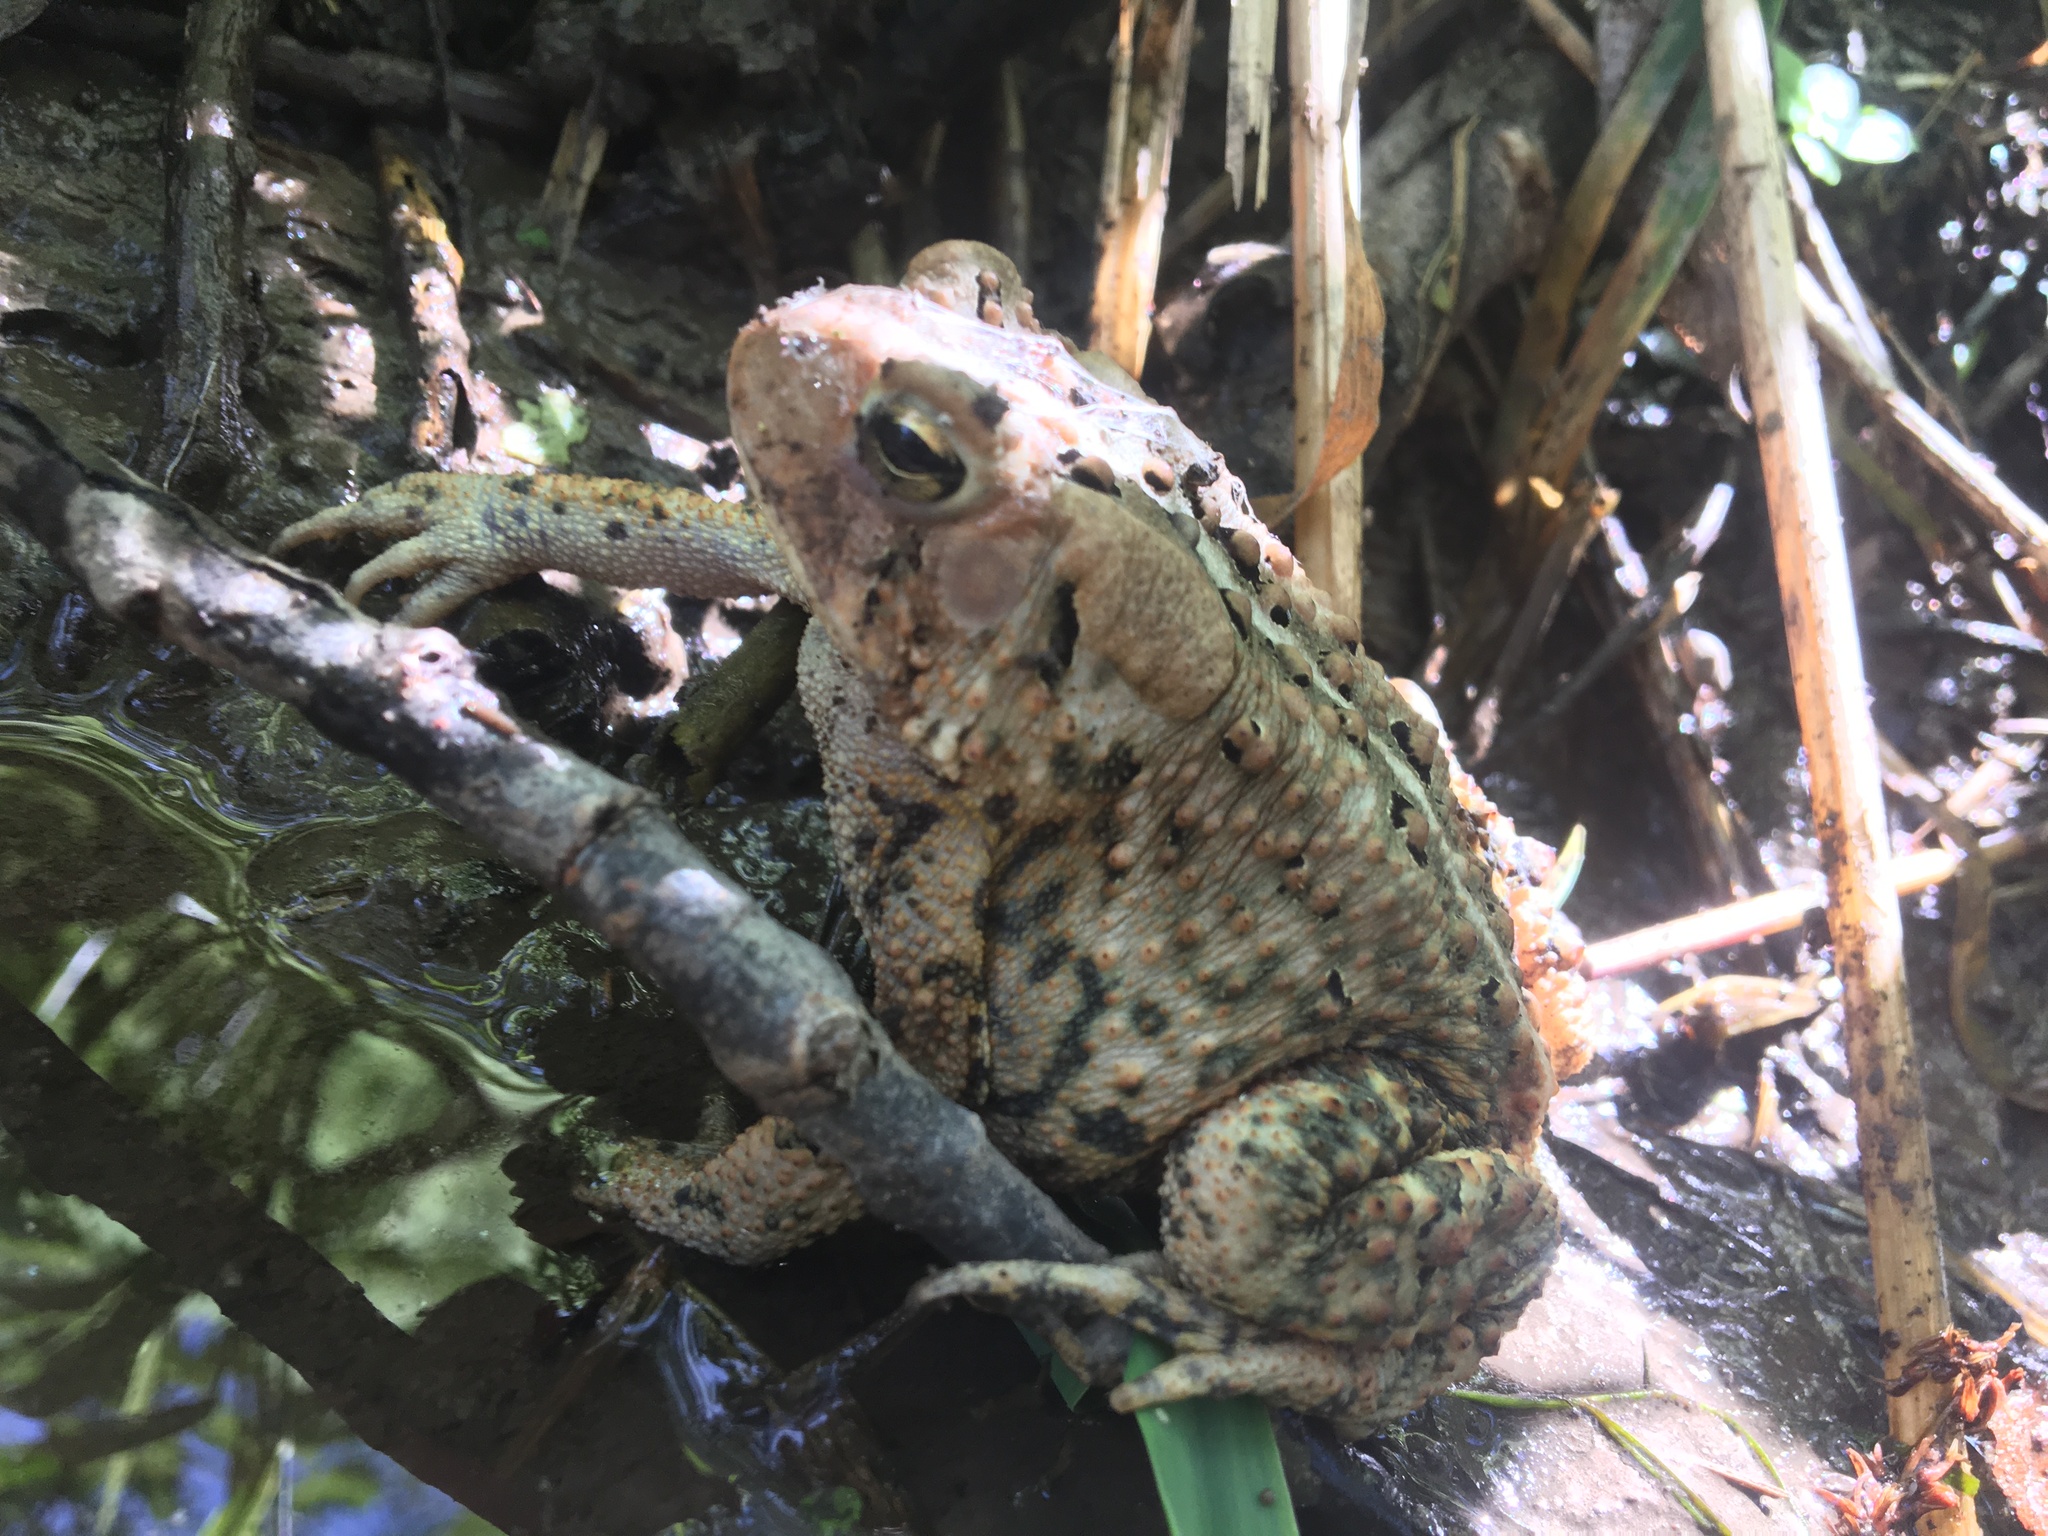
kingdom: Animalia
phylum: Chordata
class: Amphibia
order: Anura
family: Bufonidae
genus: Anaxyrus
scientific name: Anaxyrus americanus
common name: American toad
